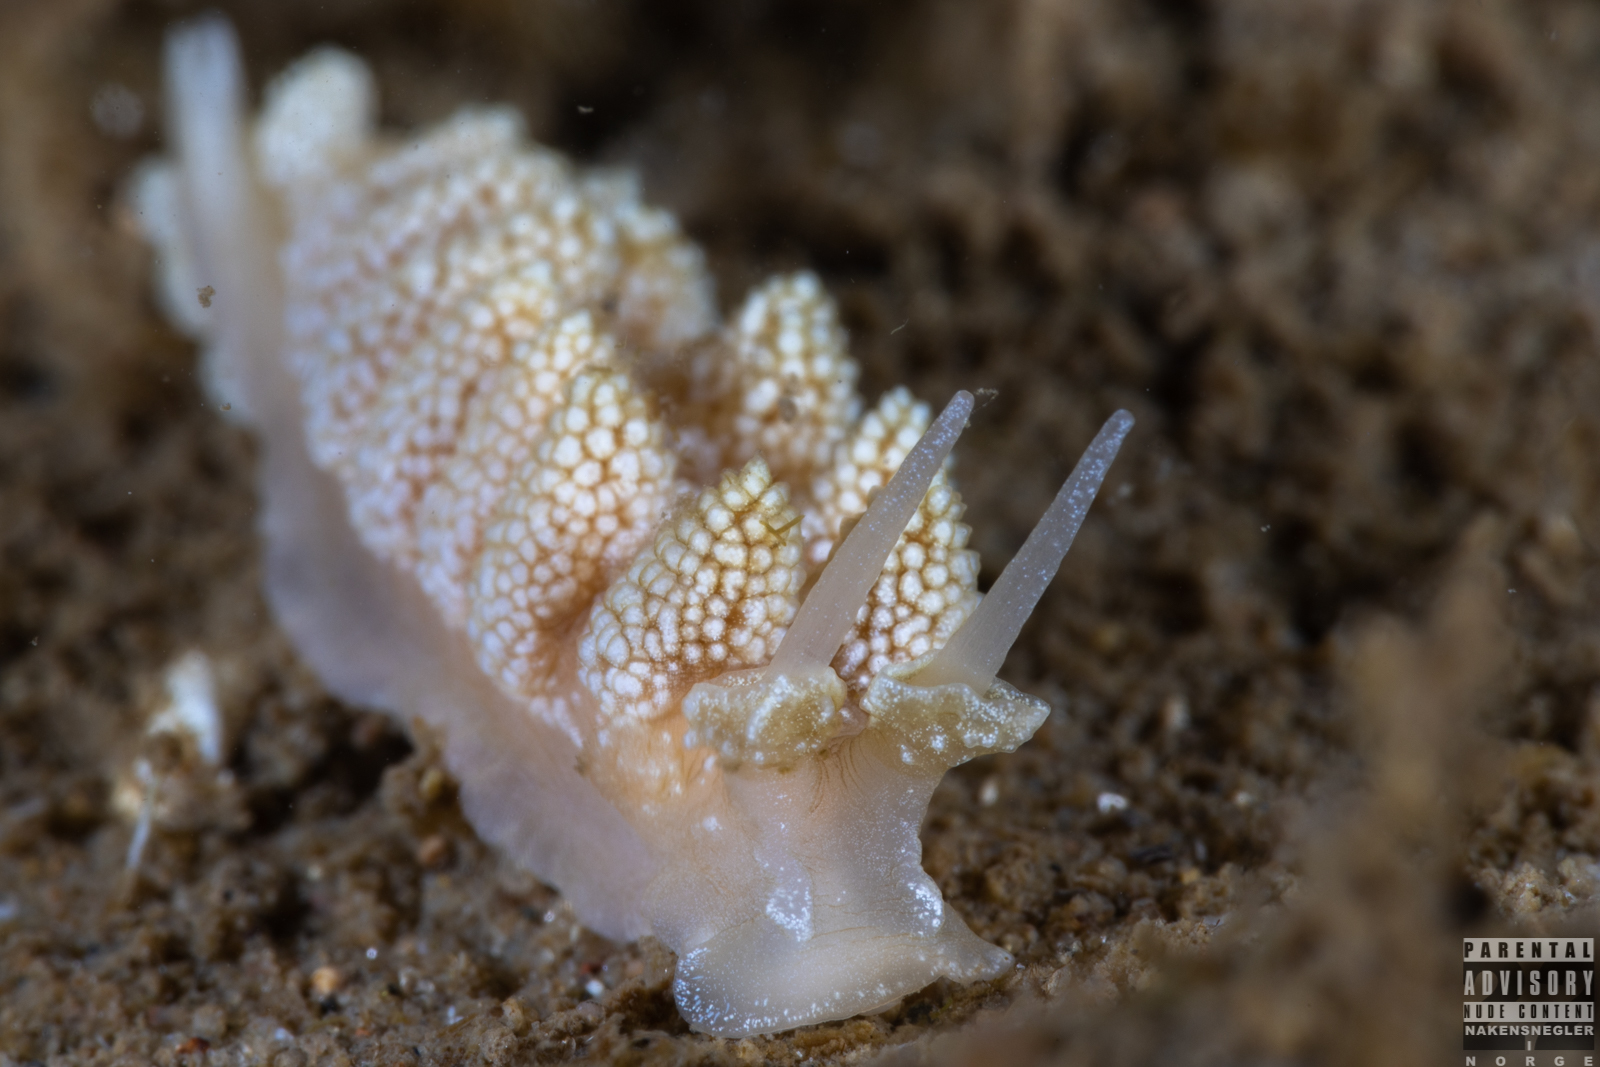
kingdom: Animalia
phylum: Mollusca
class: Gastropoda
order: Nudibranchia
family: Dotidae
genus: Doto
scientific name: Doto fragilis
